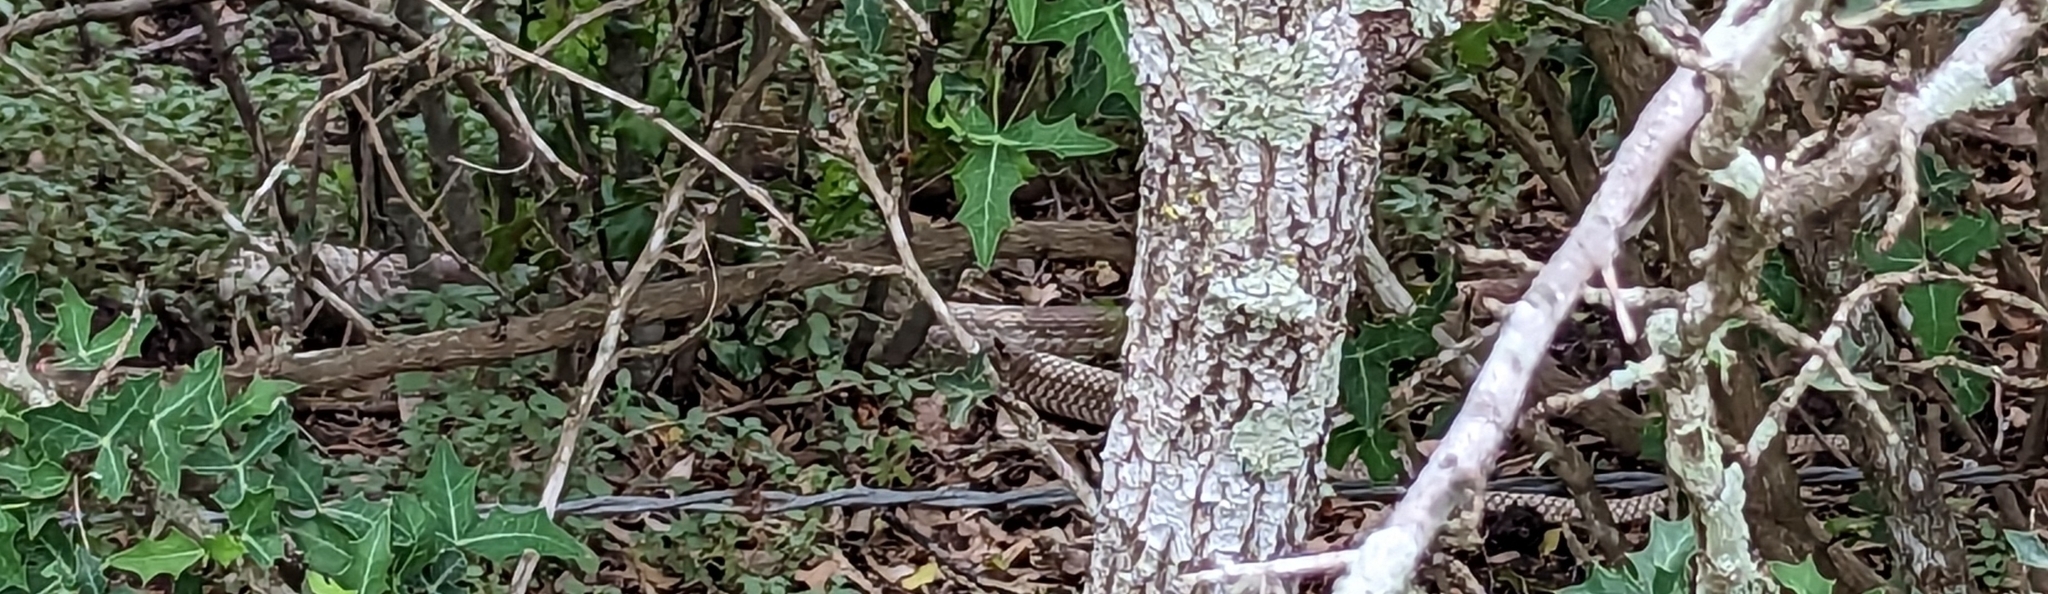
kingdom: Animalia
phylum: Chordata
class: Squamata
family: Colubridae
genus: Masticophis
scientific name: Masticophis flagellum
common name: Coachwhip
